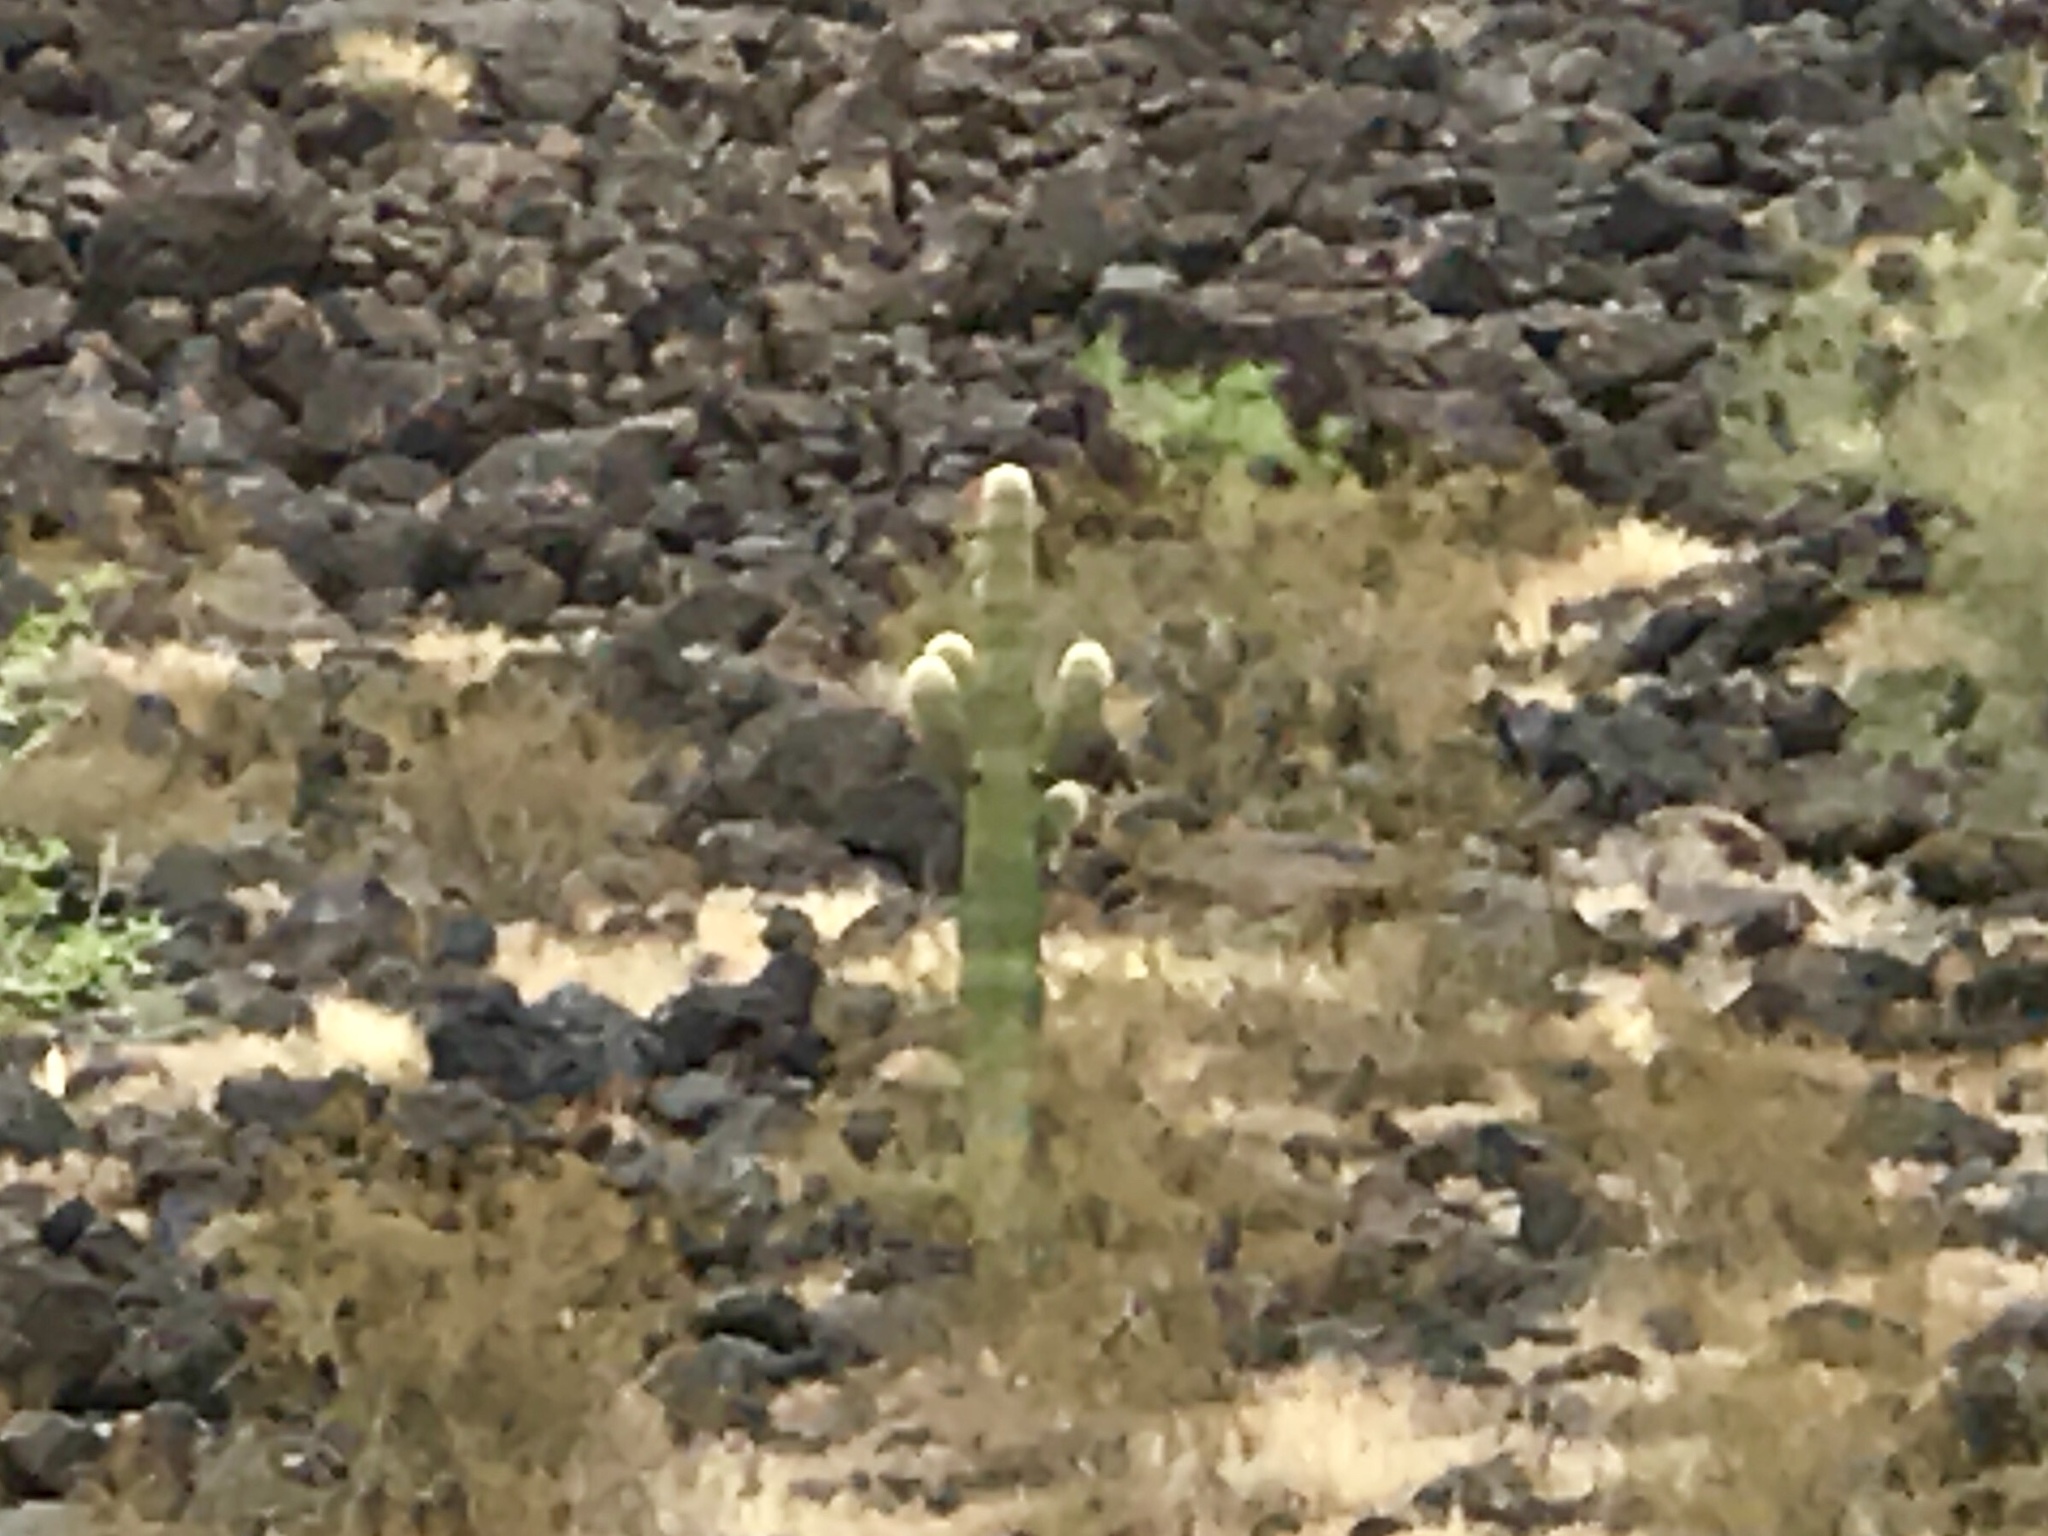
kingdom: Plantae
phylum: Tracheophyta
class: Magnoliopsida
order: Caryophyllales
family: Cactaceae
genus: Carnegiea
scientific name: Carnegiea gigantea
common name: Saguaro
